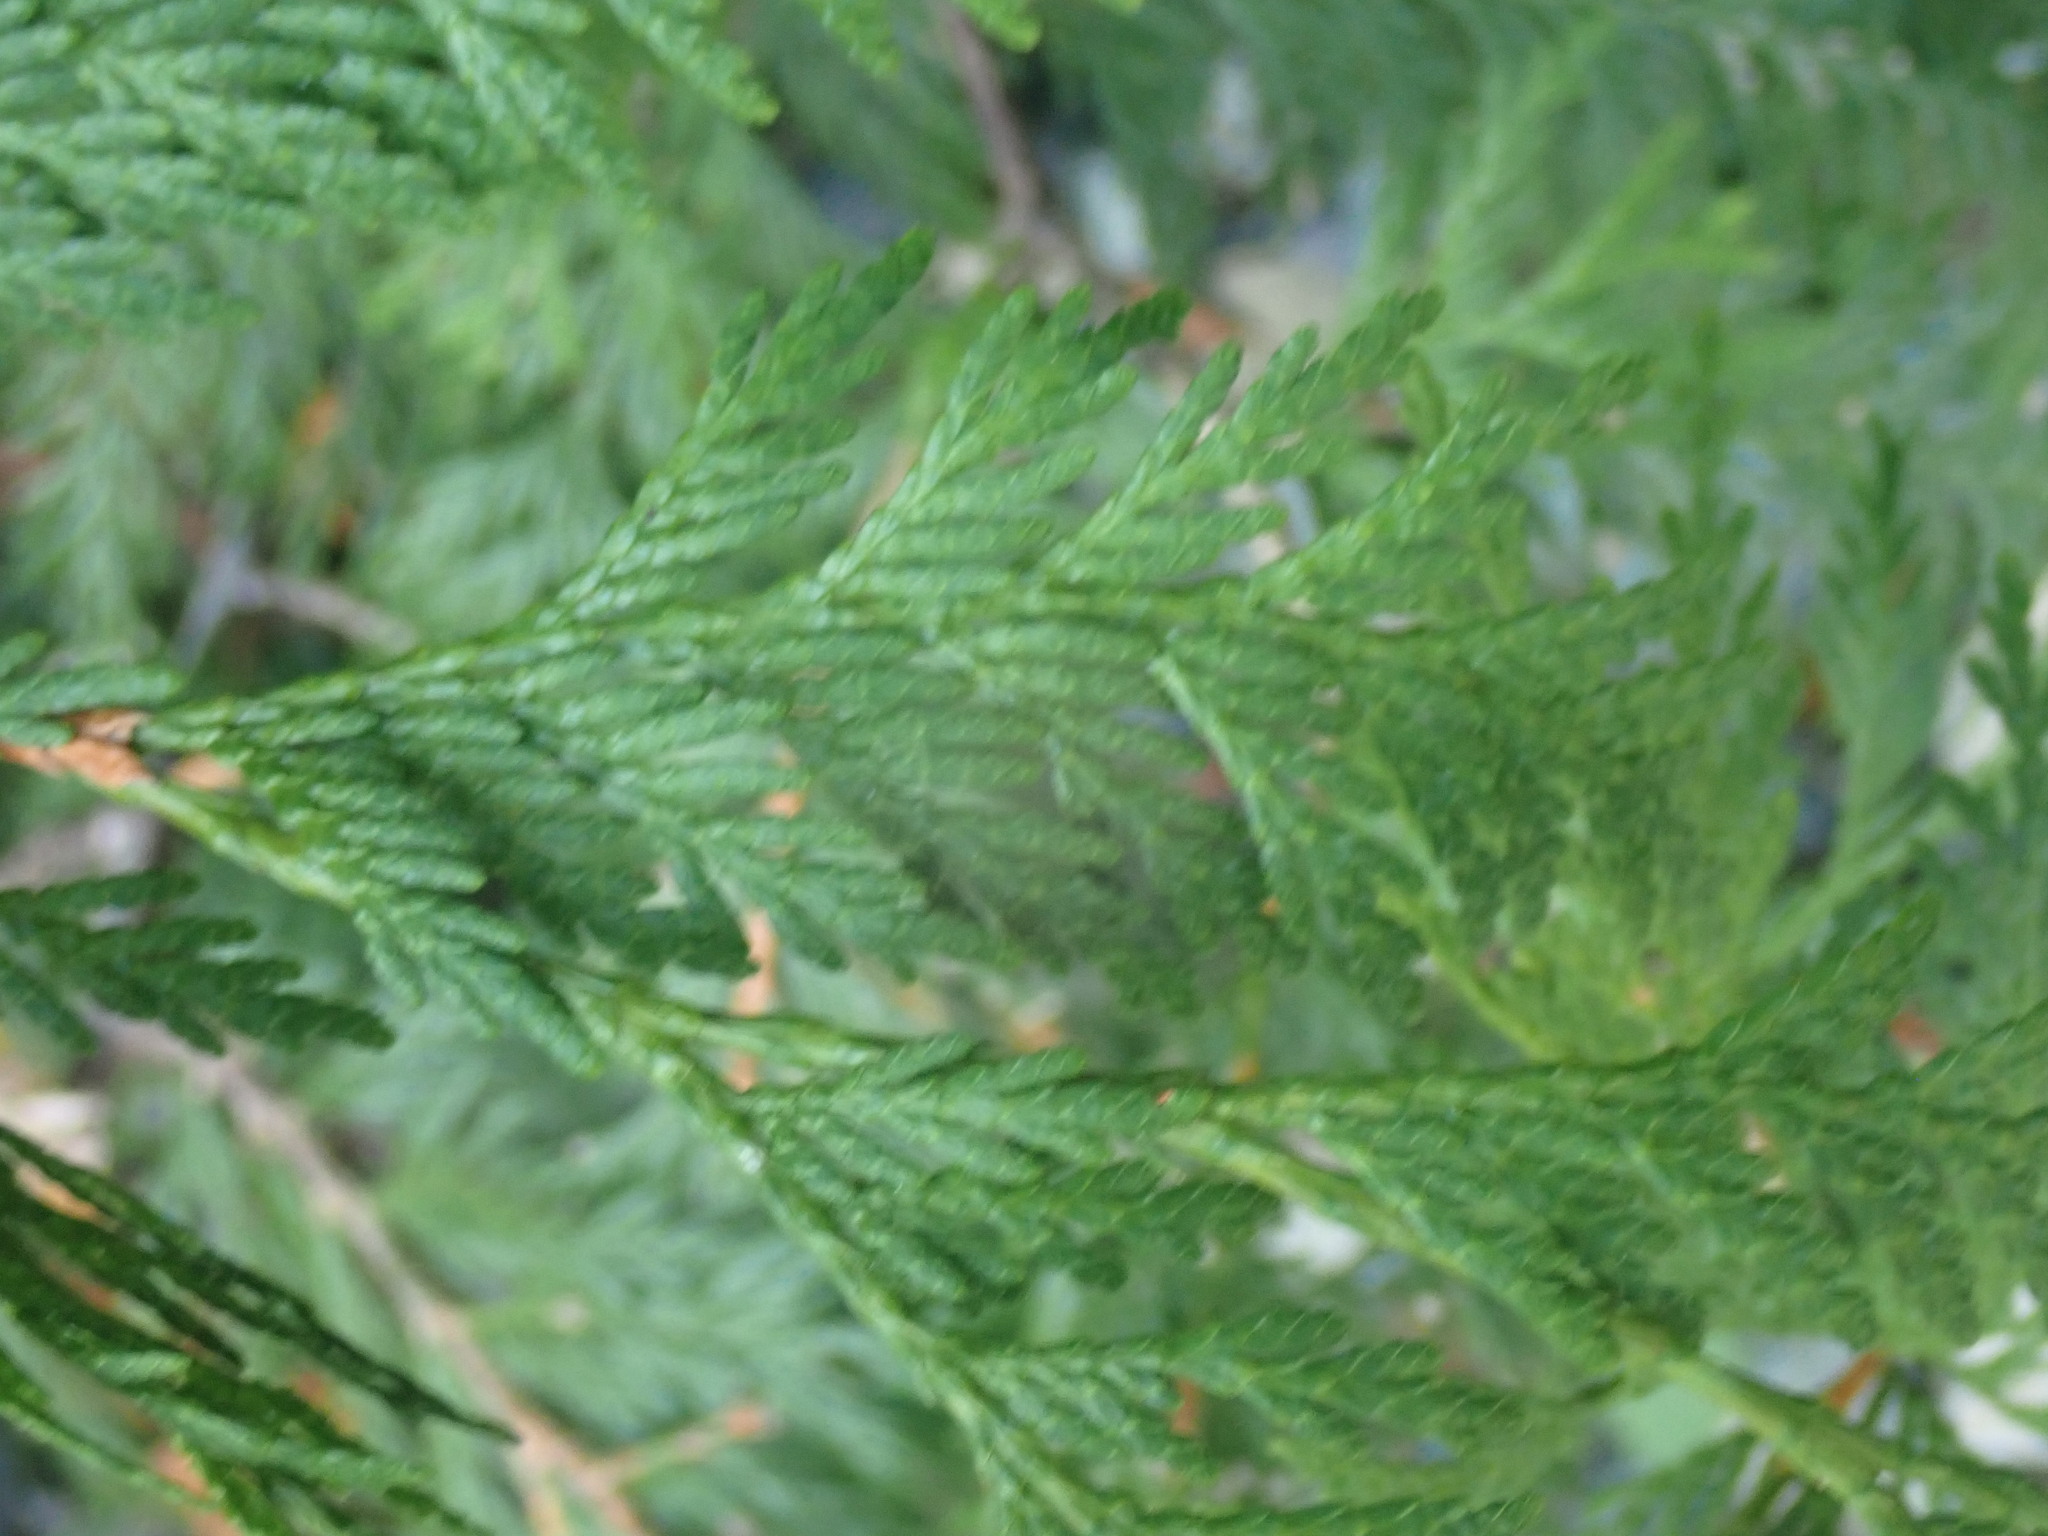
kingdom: Plantae
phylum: Tracheophyta
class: Pinopsida
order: Pinales
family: Cupressaceae
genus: Thuja
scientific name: Thuja plicata
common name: Western red-cedar
